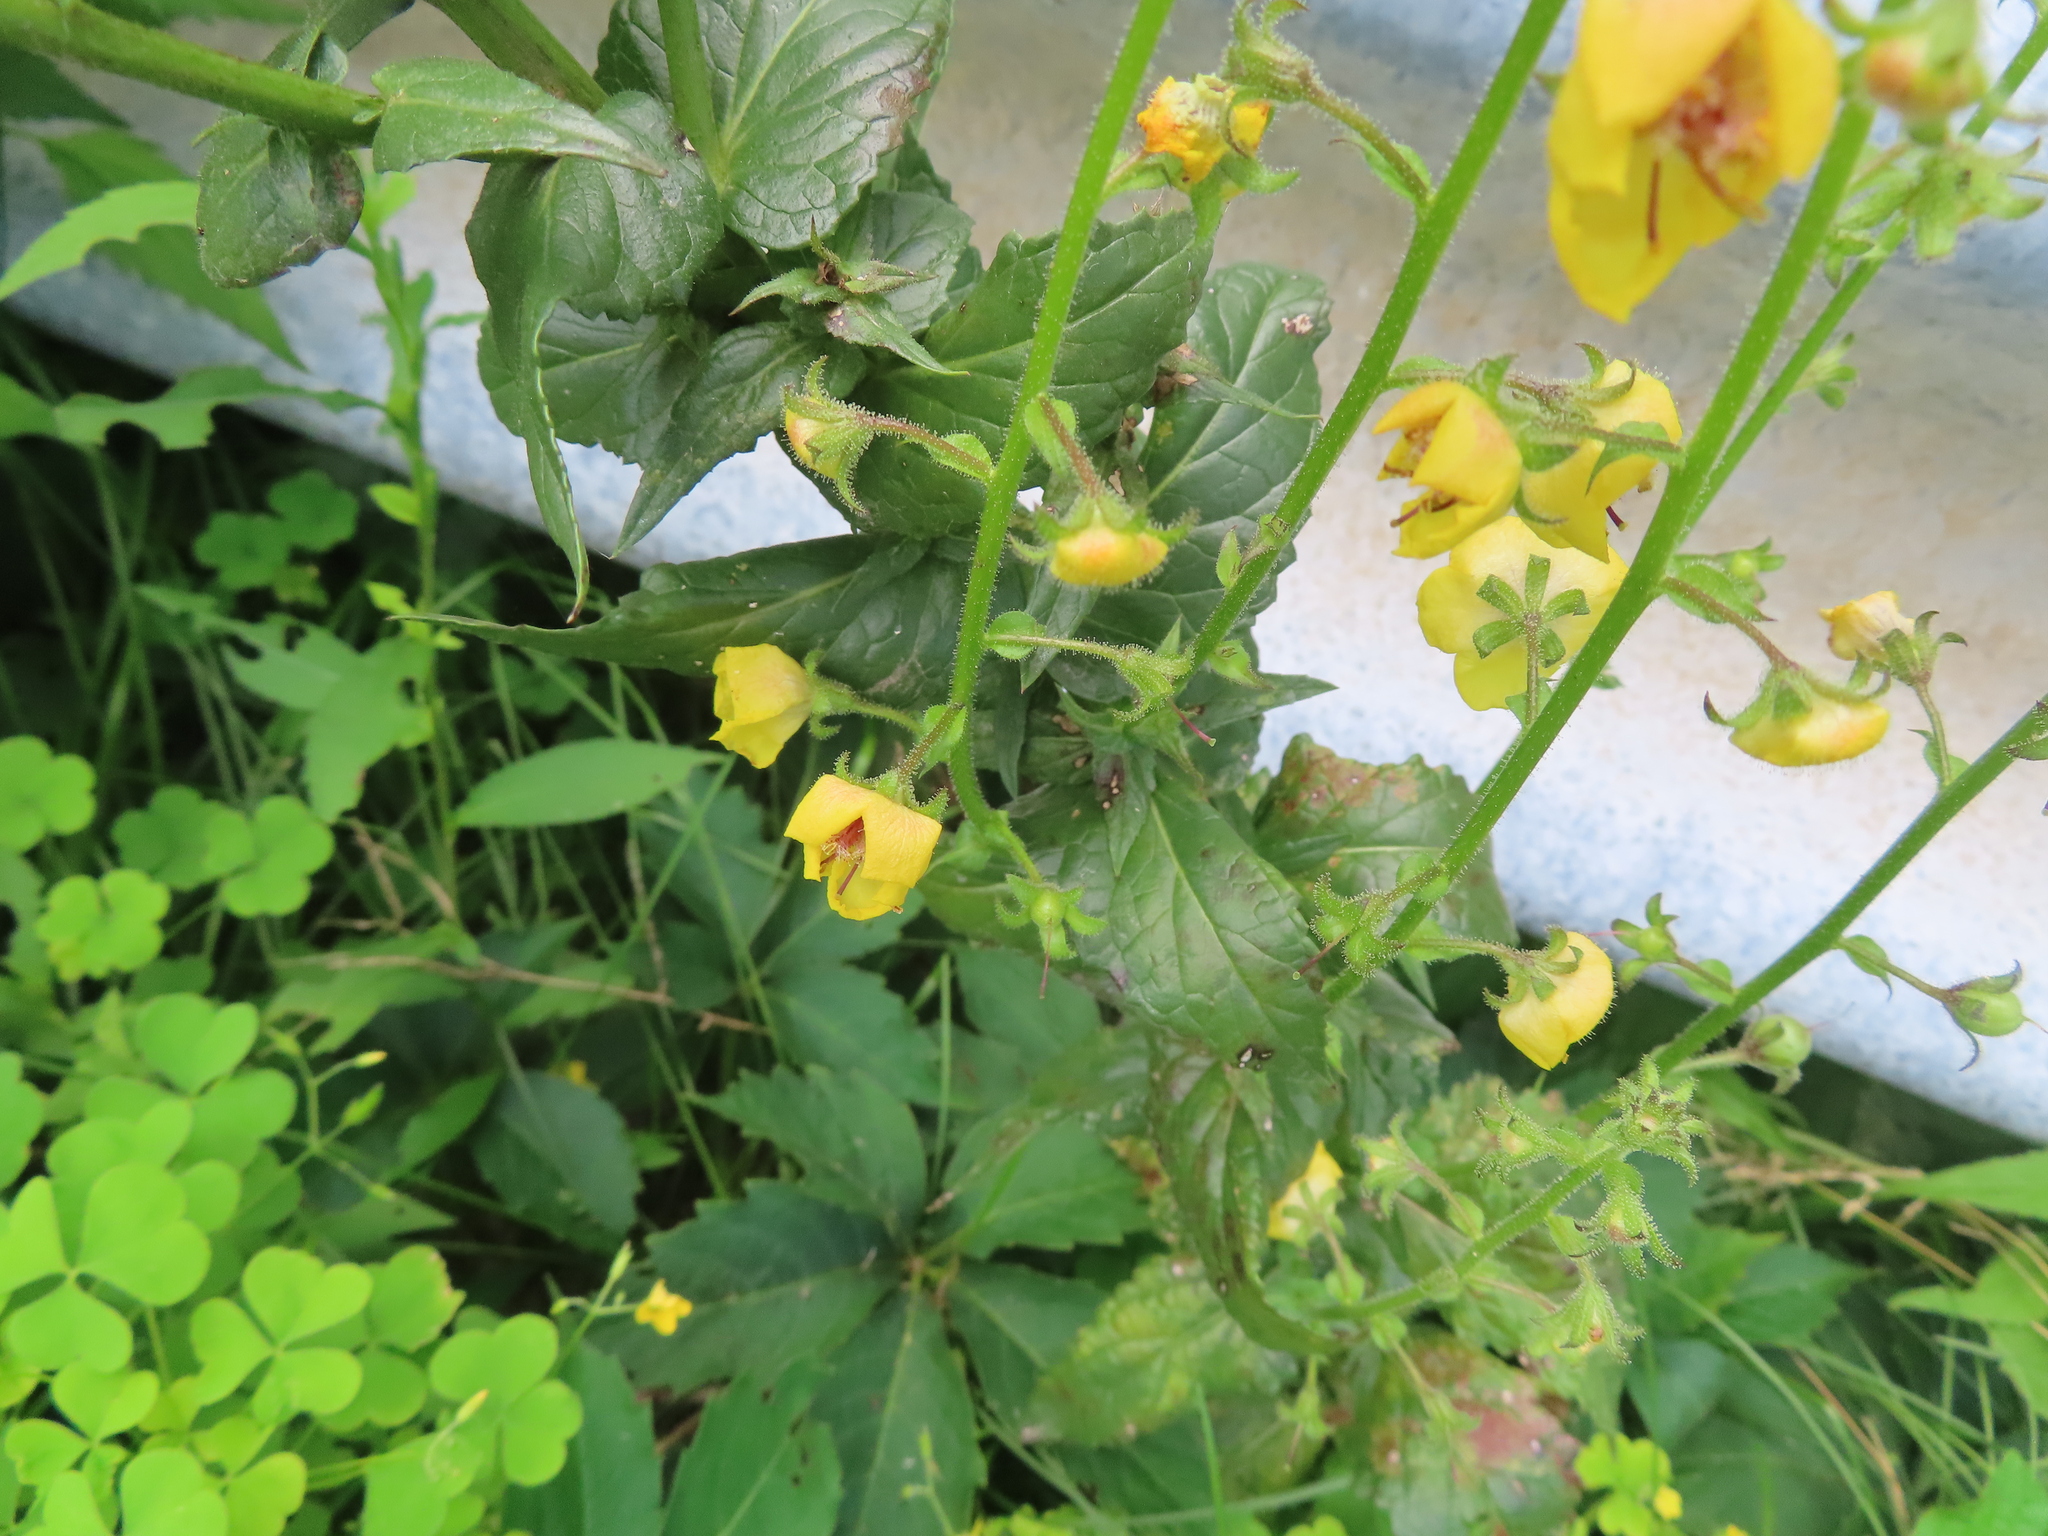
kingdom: Plantae
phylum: Tracheophyta
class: Magnoliopsida
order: Lamiales
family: Scrophulariaceae
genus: Verbascum
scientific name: Verbascum blattaria
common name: Moth mullein
